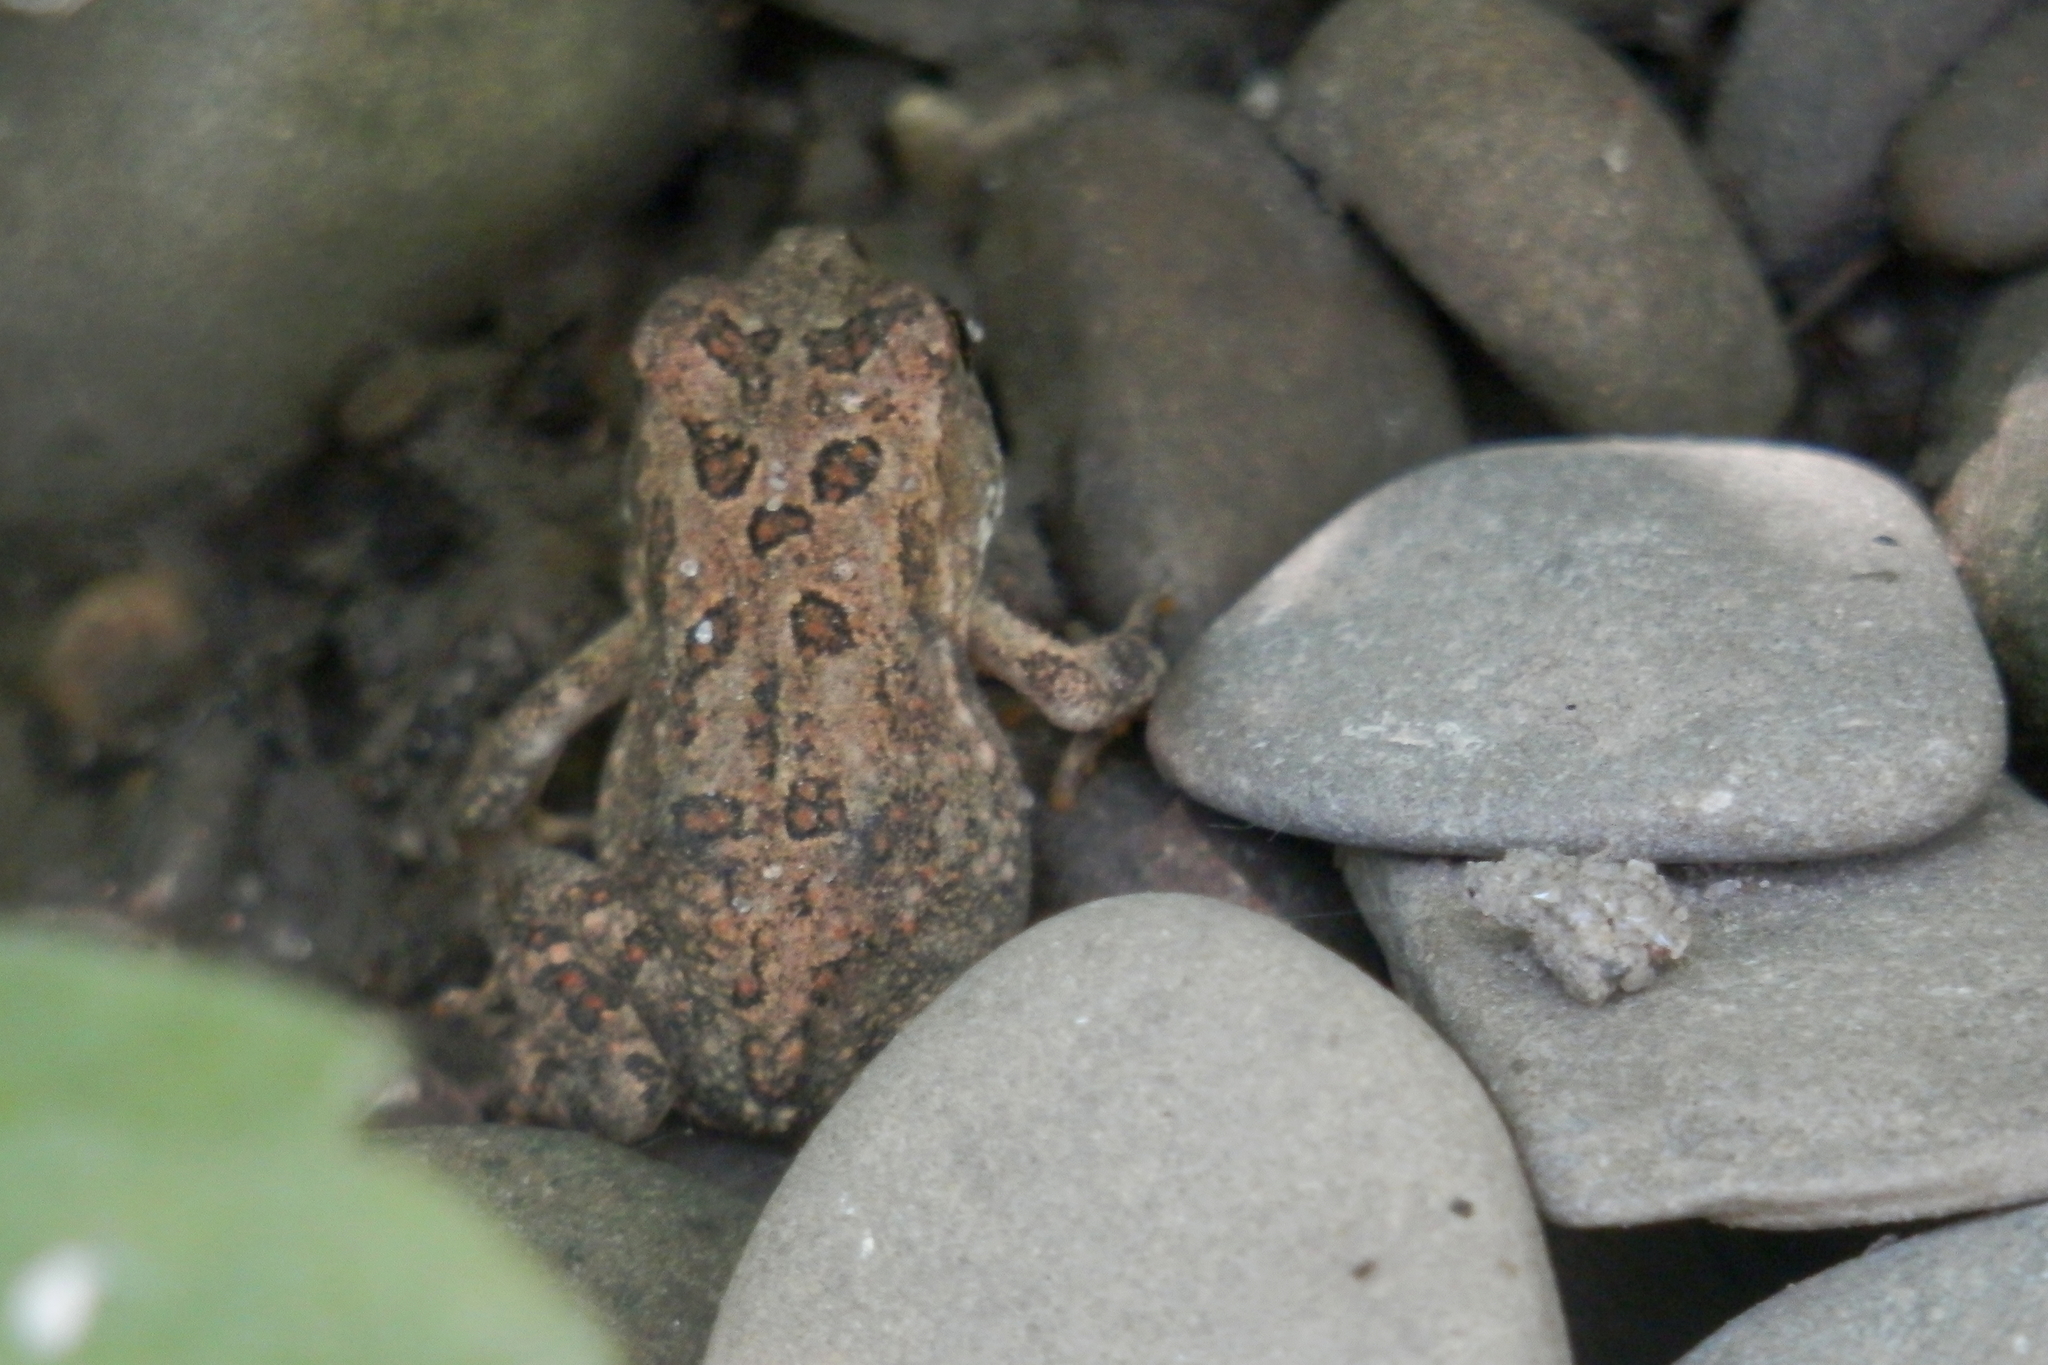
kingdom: Animalia
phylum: Chordata
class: Amphibia
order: Anura
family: Bufonidae
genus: Anaxyrus
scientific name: Anaxyrus americanus
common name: American toad
